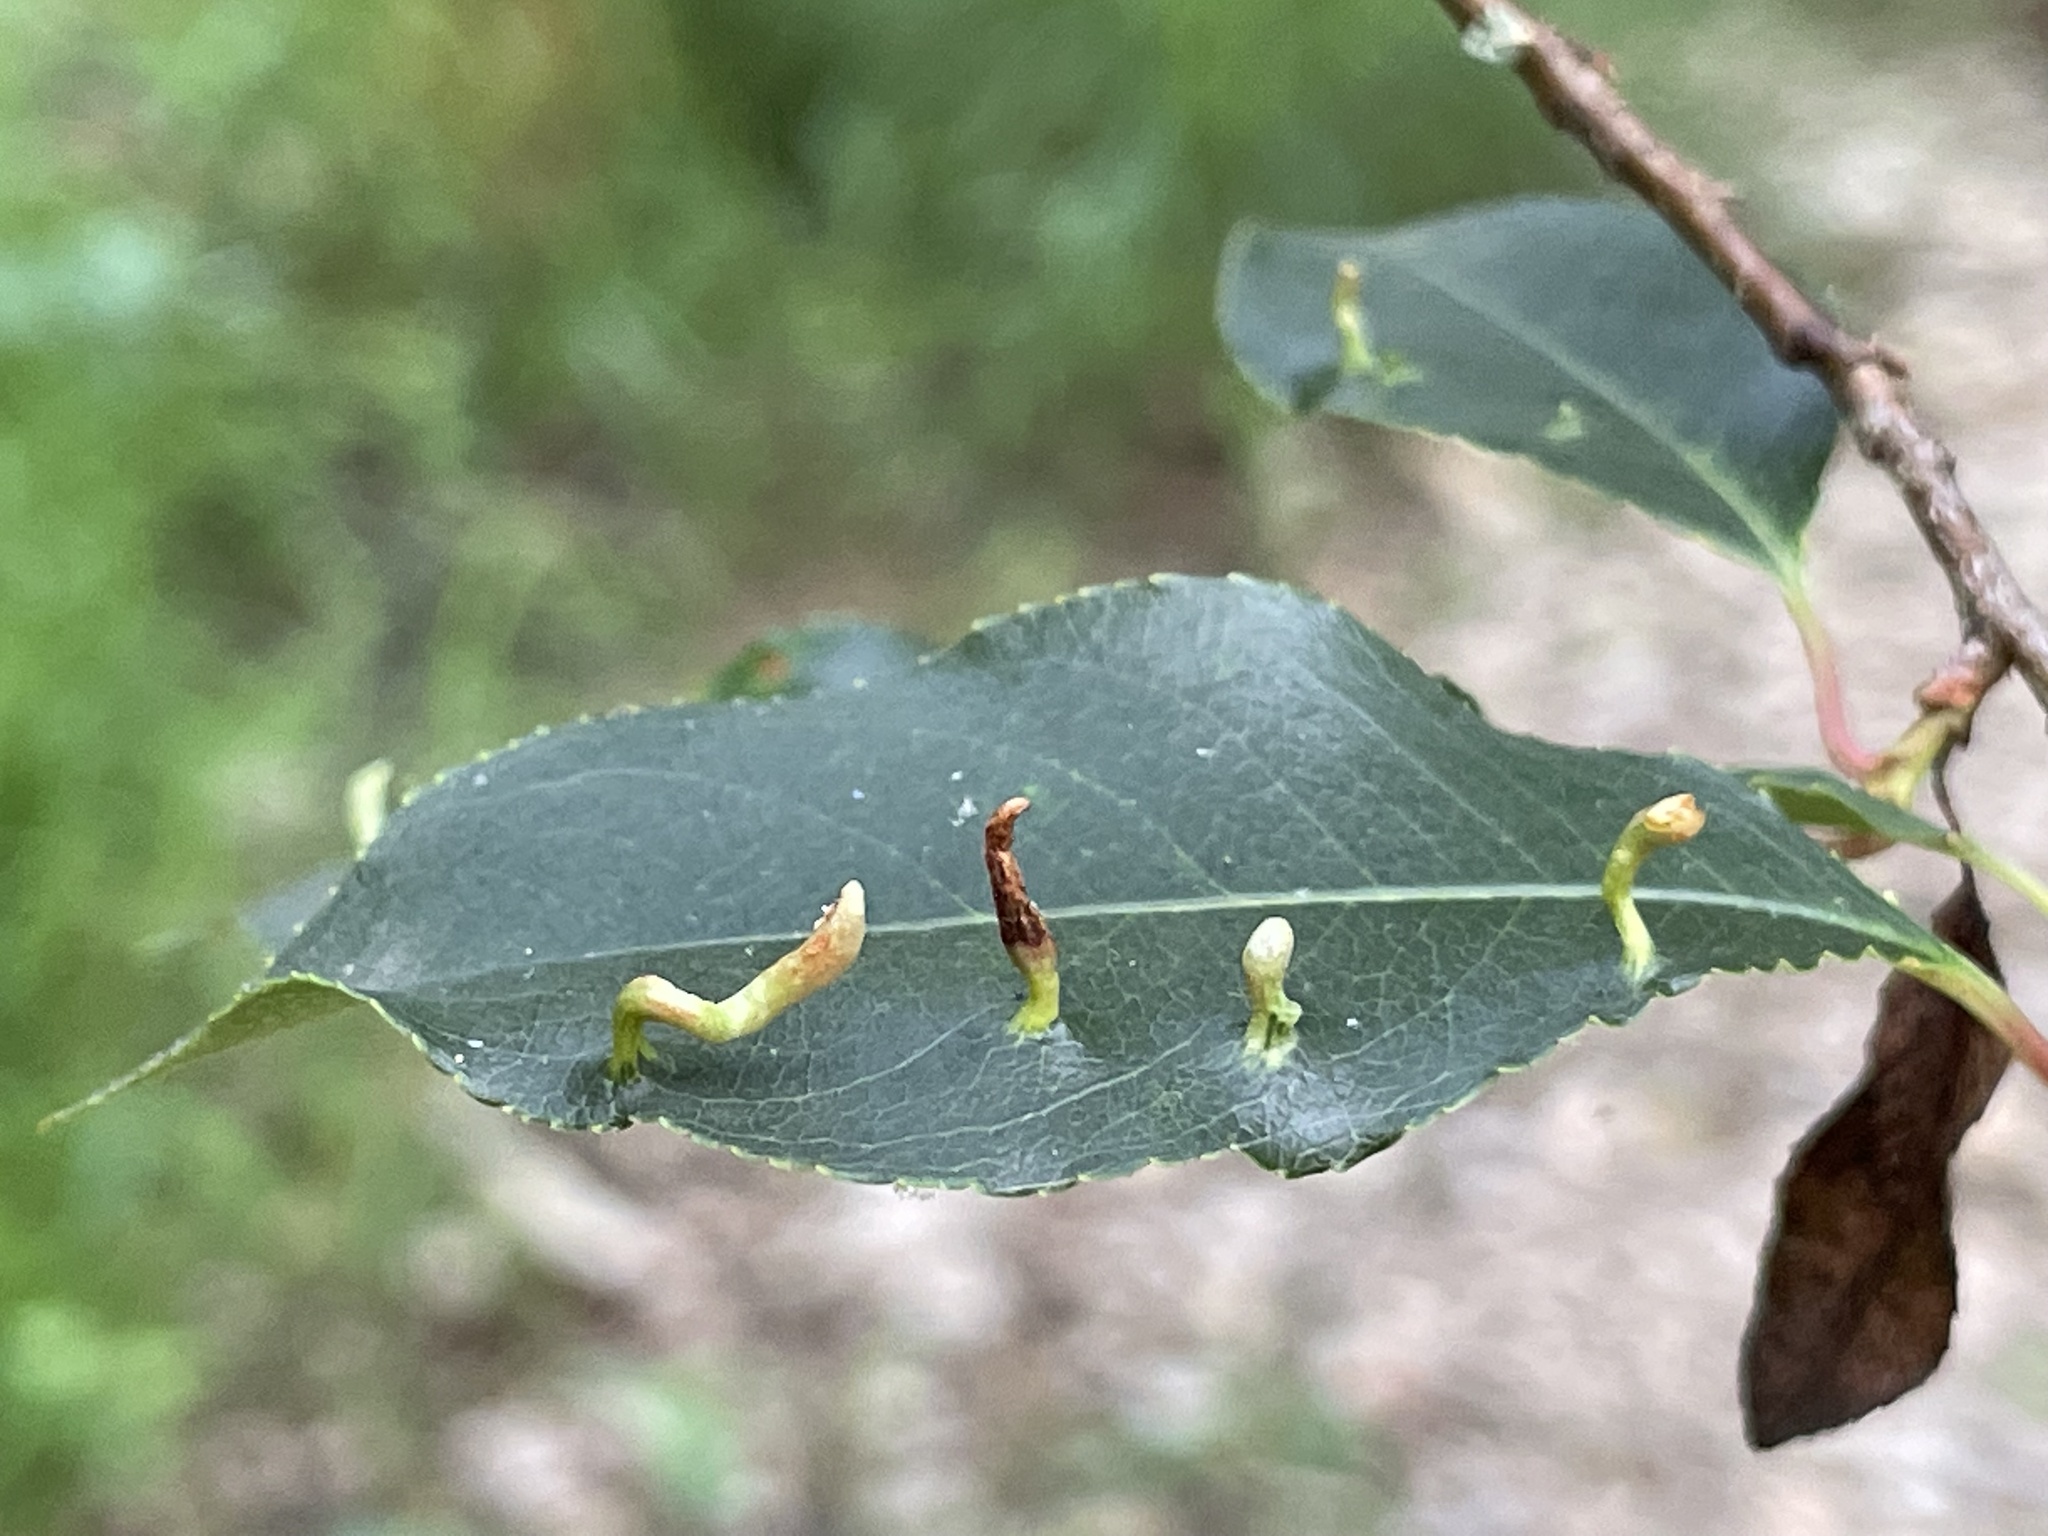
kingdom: Animalia
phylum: Arthropoda
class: Arachnida
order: Trombidiformes
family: Eriophyidae
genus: Eriophyes
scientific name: Eriophyes
